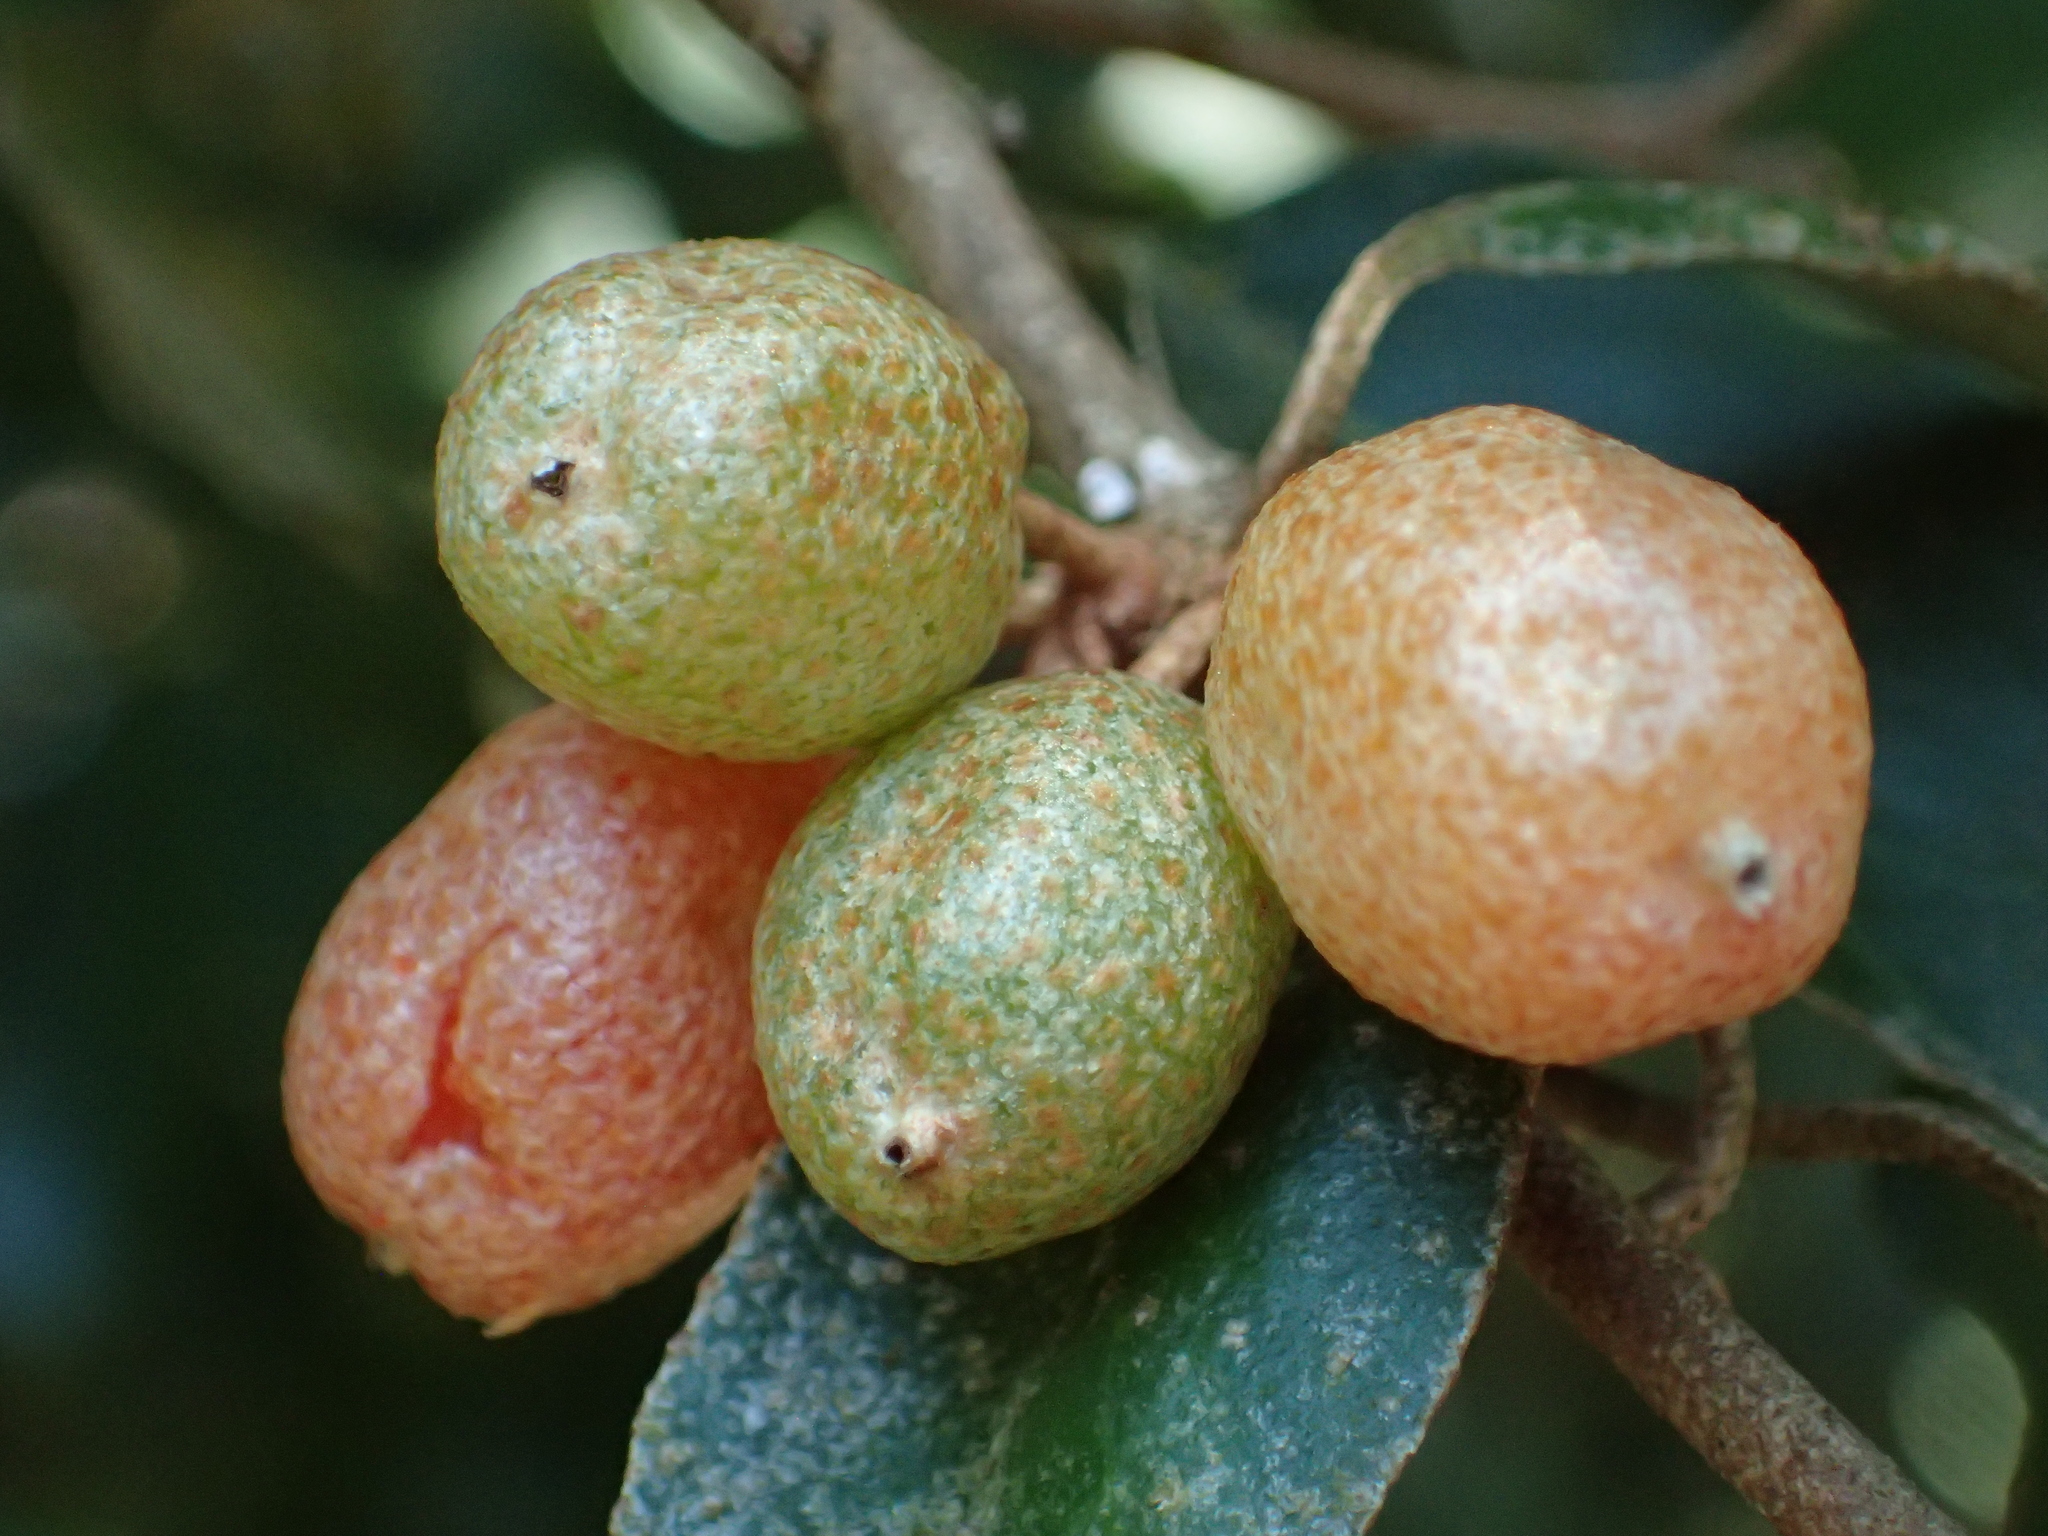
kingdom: Plantae
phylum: Tracheophyta
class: Magnoliopsida
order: Rosales
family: Elaeagnaceae
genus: Elaeagnus
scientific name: Elaeagnus thunbergii
